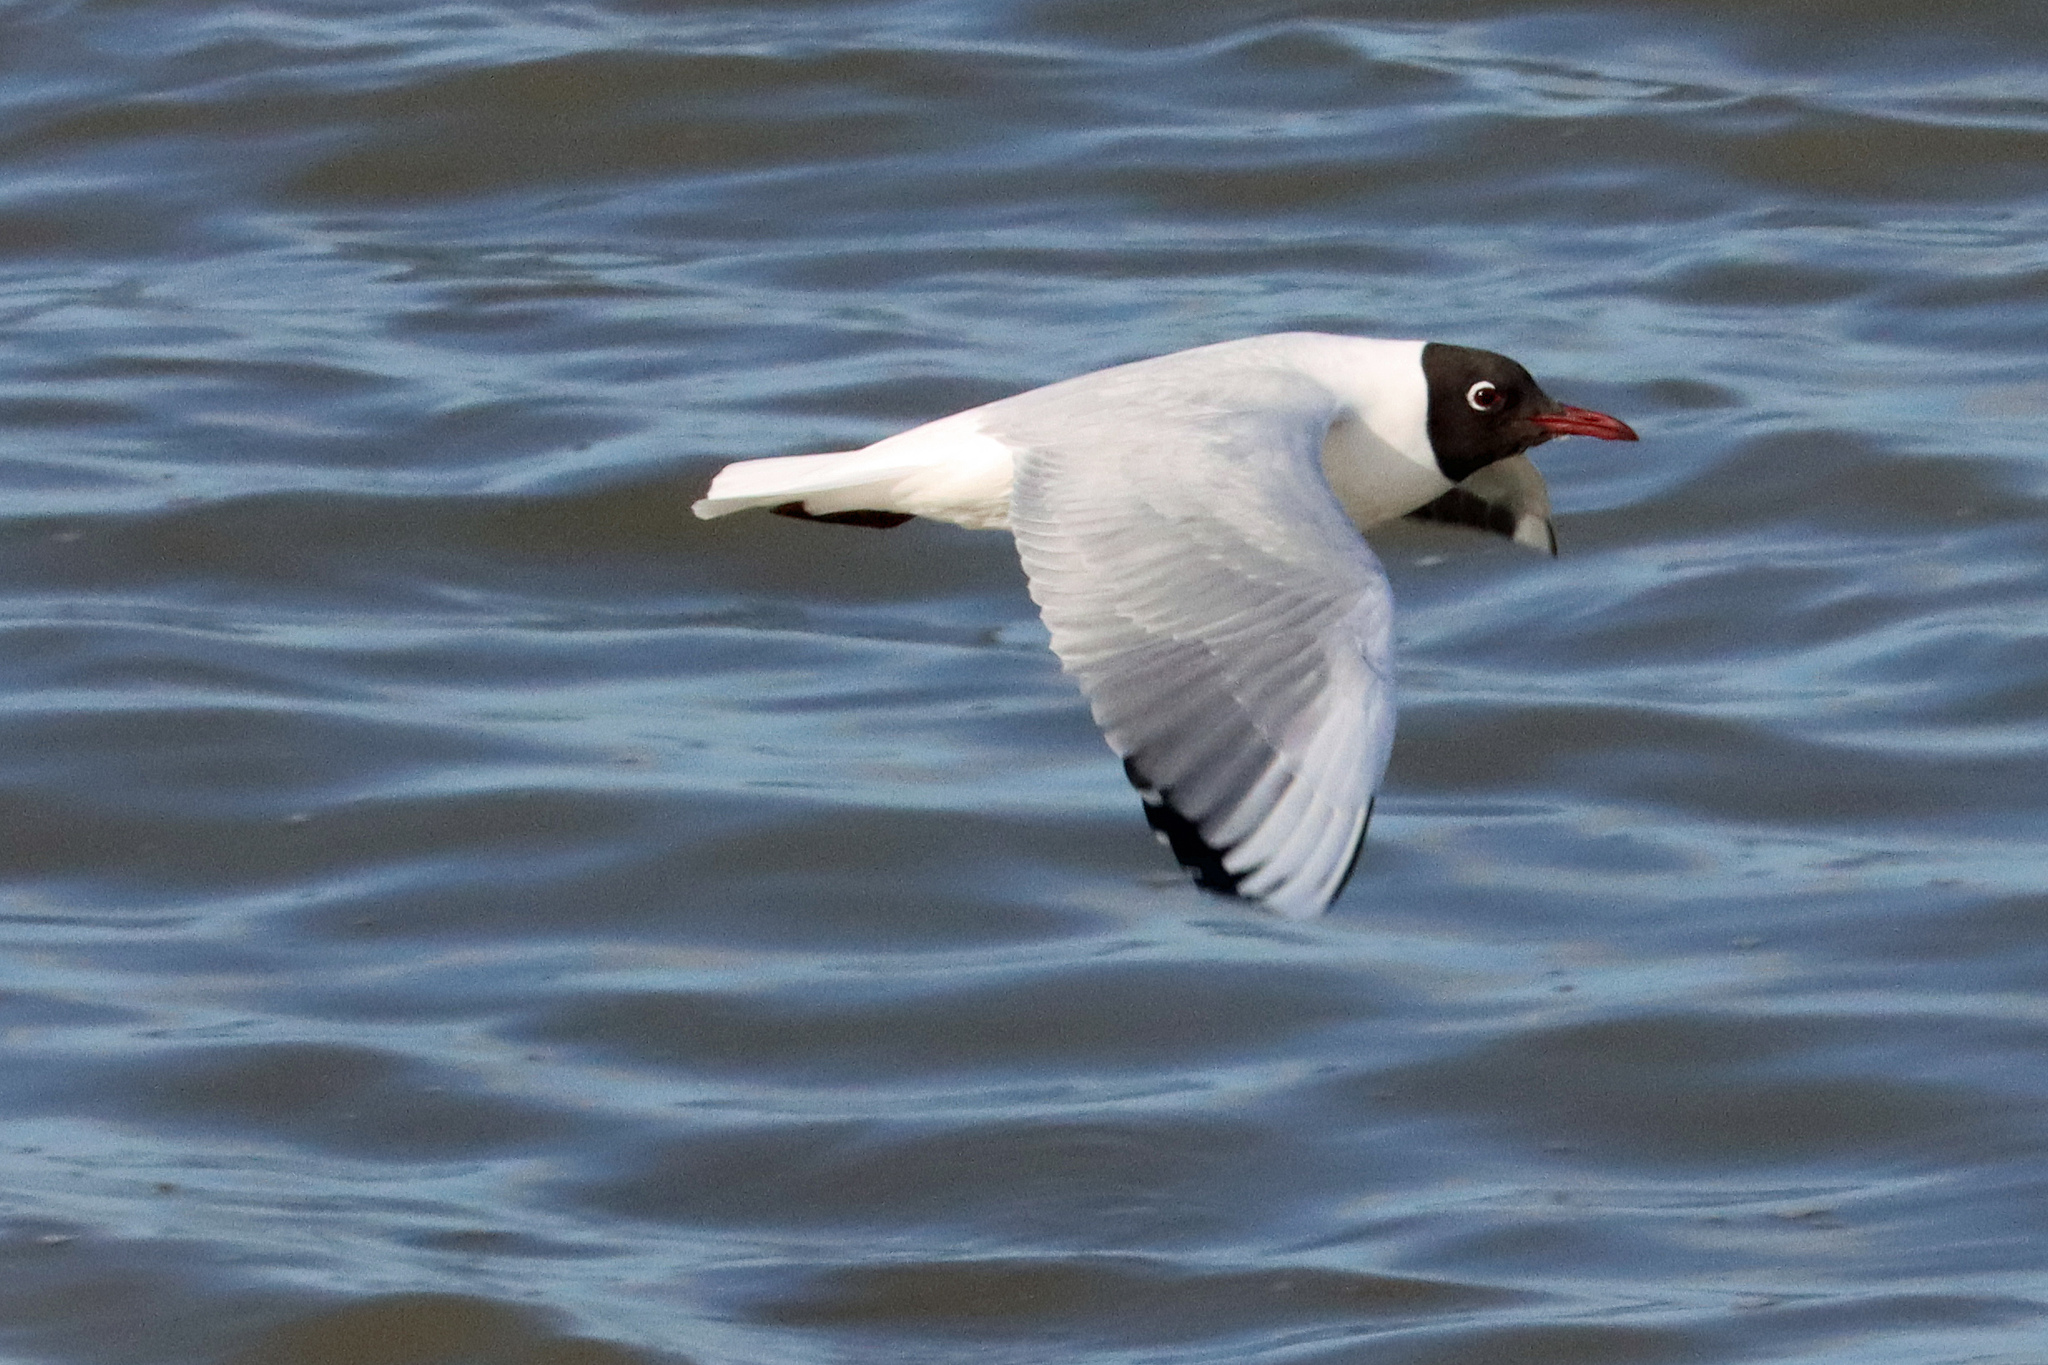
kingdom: Animalia
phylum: Chordata
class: Aves
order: Charadriiformes
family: Laridae
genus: Chroicocephalus
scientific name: Chroicocephalus ridibundus
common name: Black-headed gull
